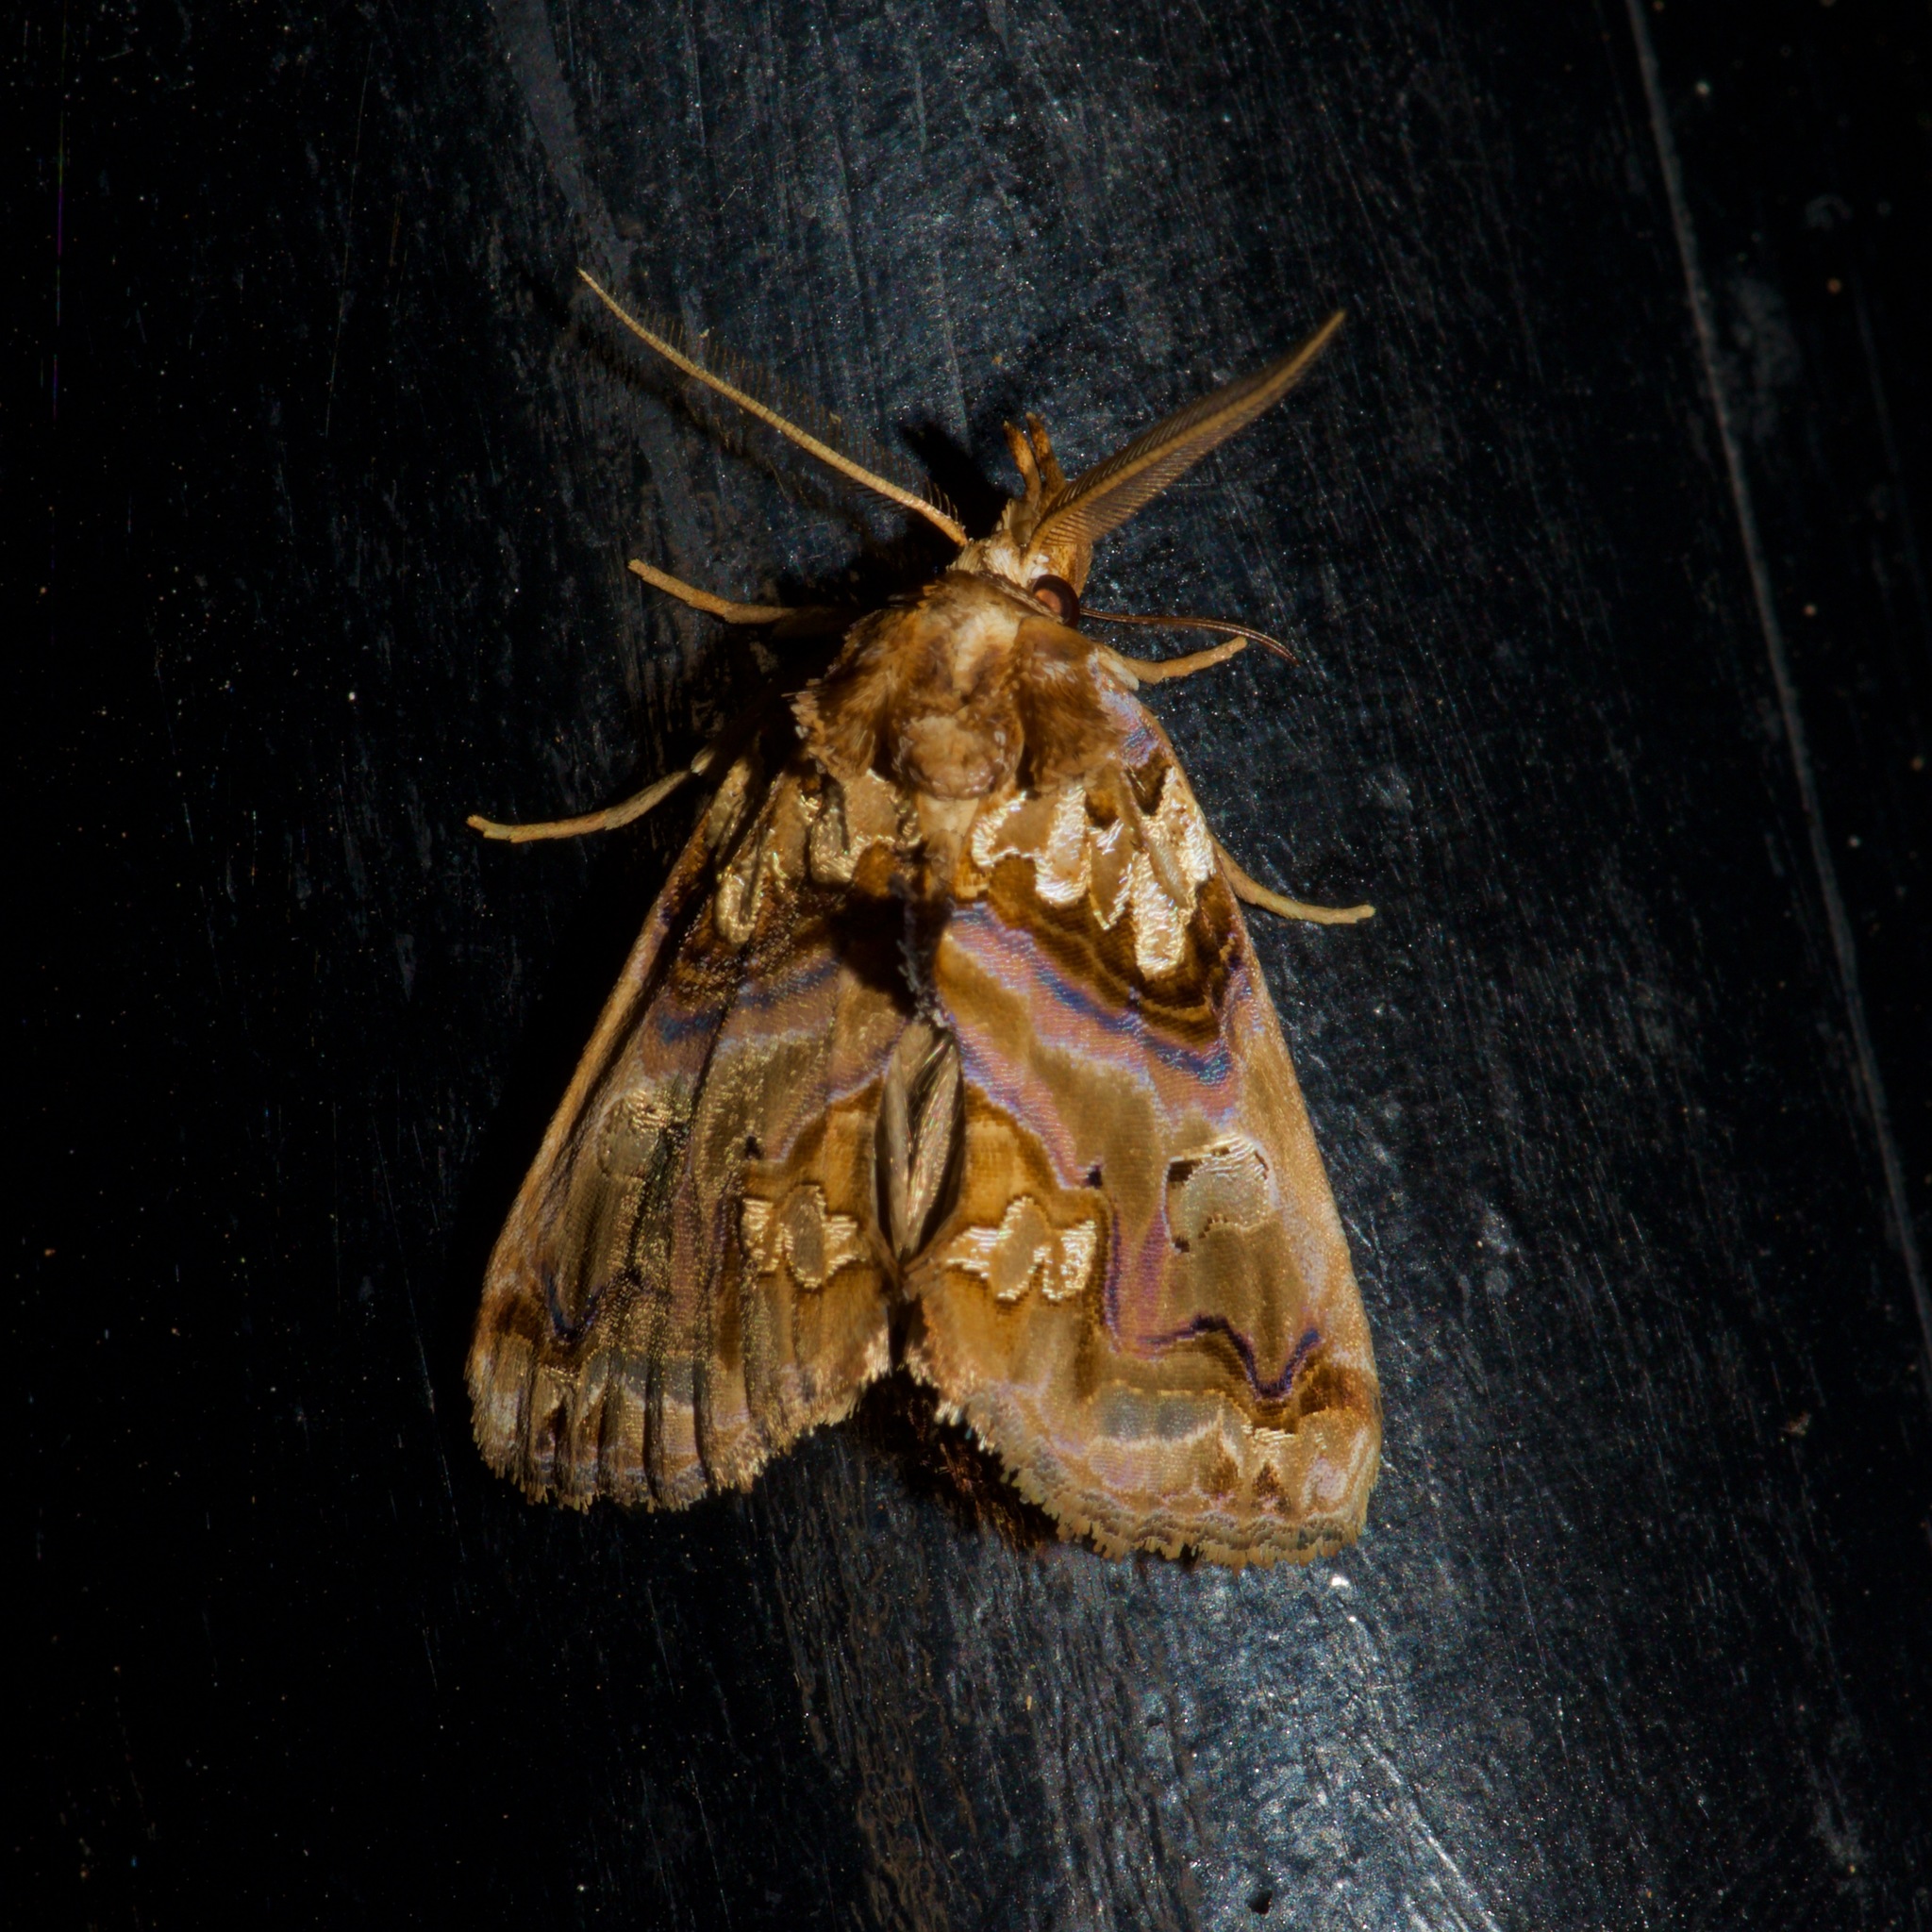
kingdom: Animalia
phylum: Arthropoda
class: Insecta
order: Lepidoptera
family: Erebidae
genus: Plusiodonta
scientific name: Plusiodonta compressipalpis
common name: Moonseed moth
